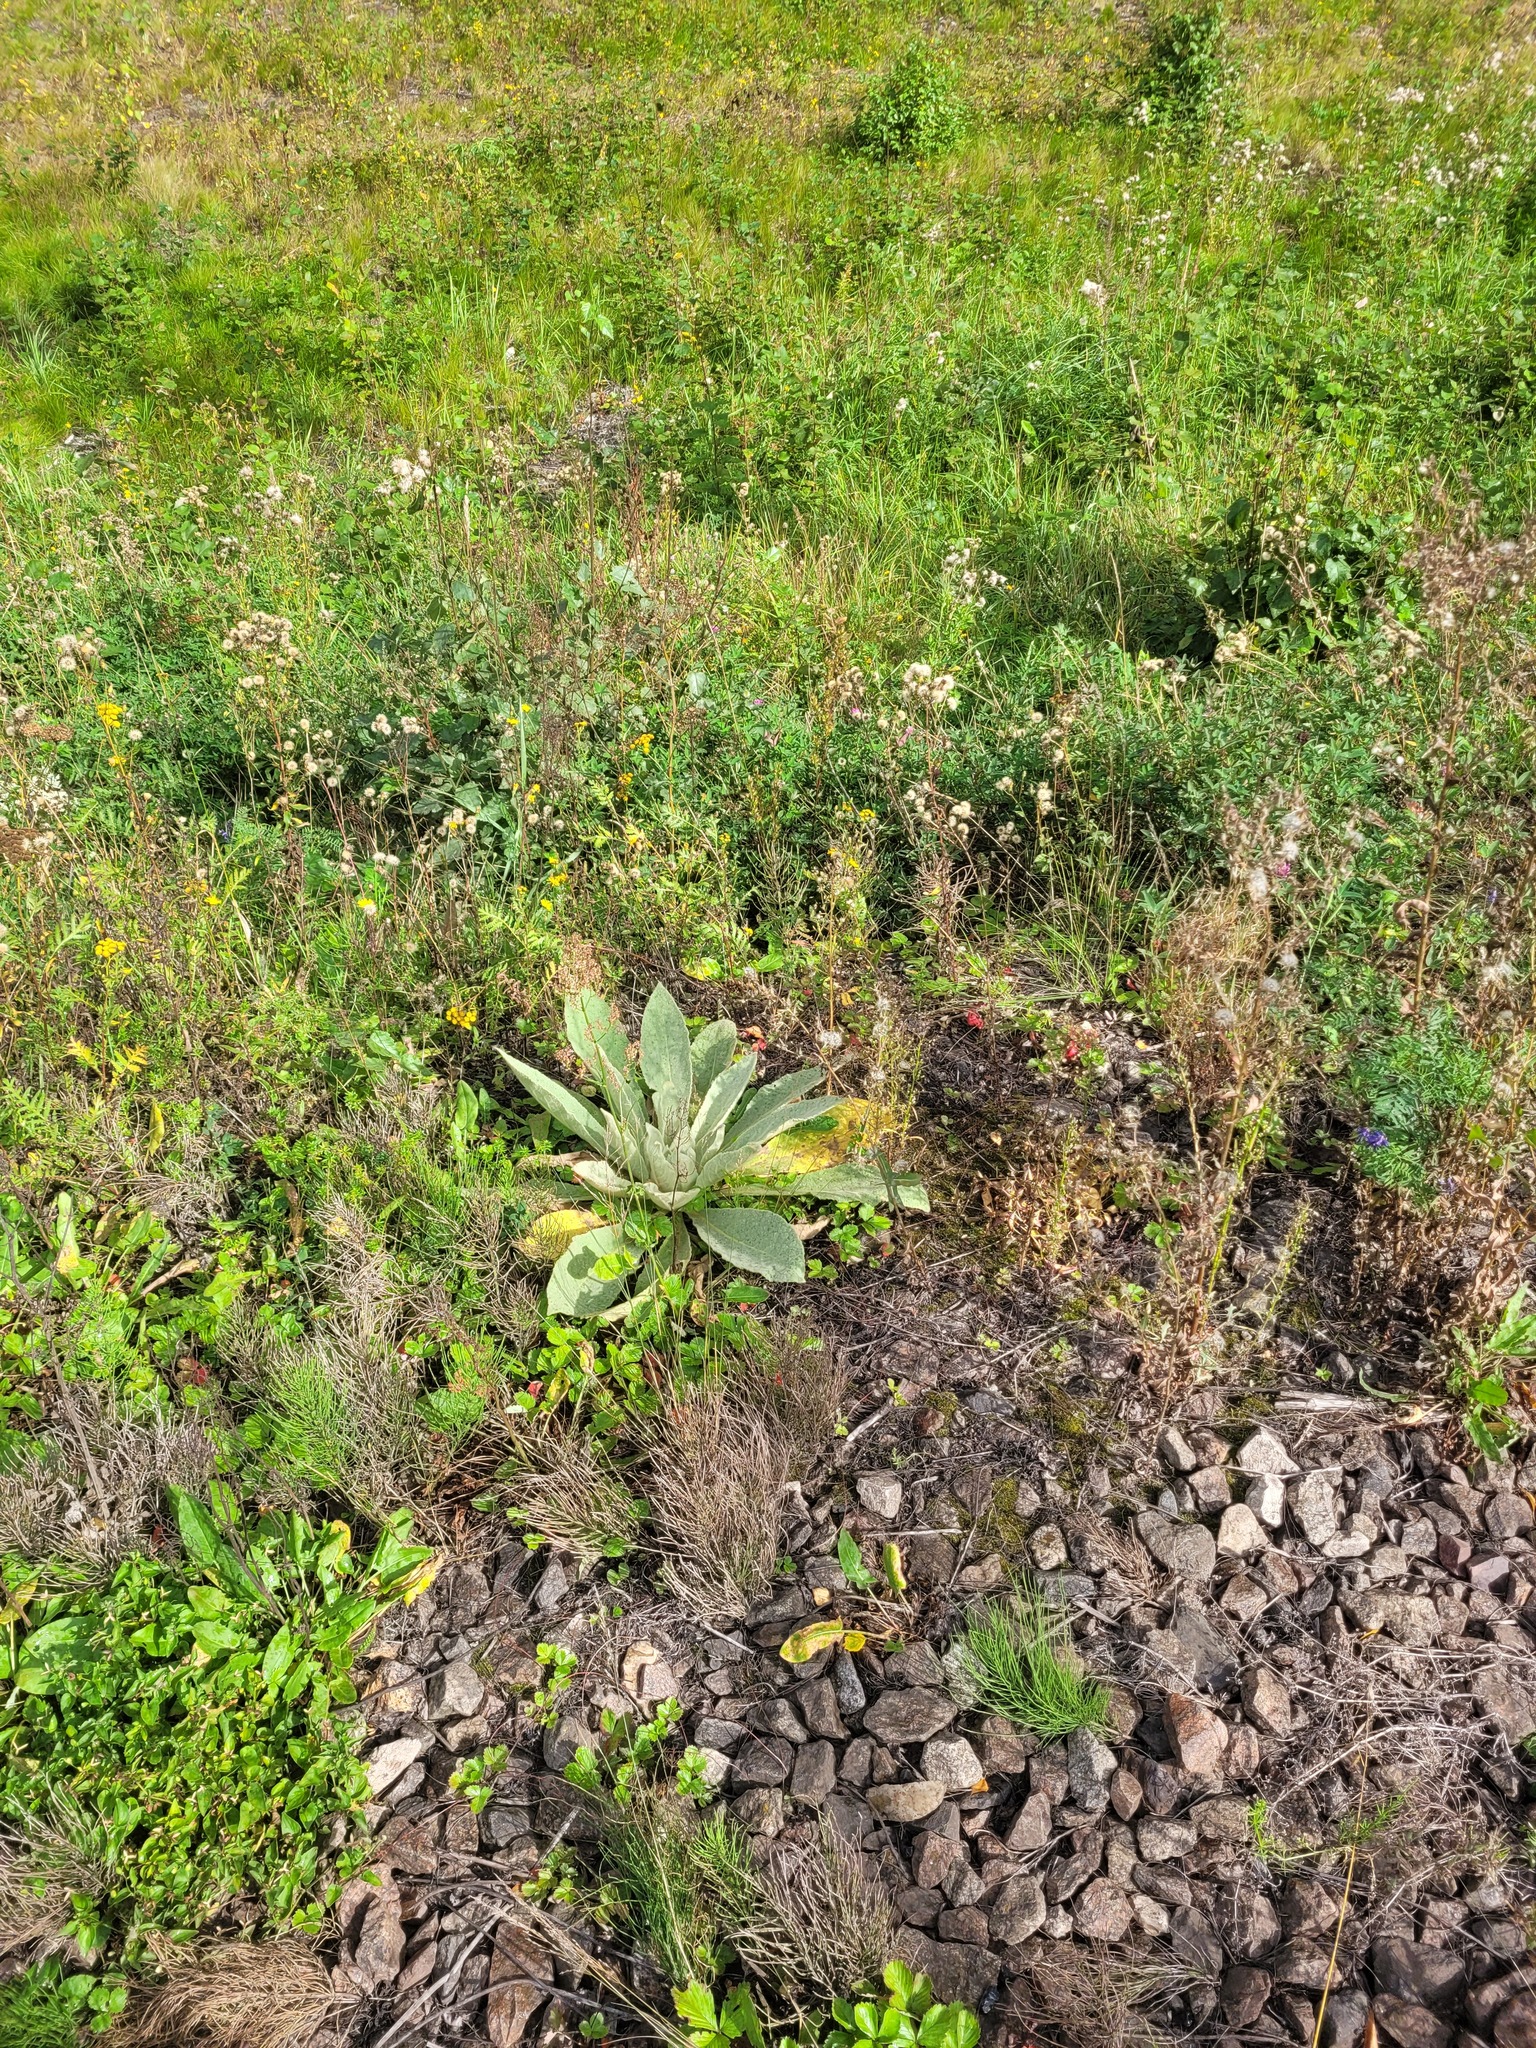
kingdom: Plantae
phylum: Tracheophyta
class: Magnoliopsida
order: Lamiales
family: Scrophulariaceae
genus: Verbascum
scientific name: Verbascum thapsus
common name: Common mullein
